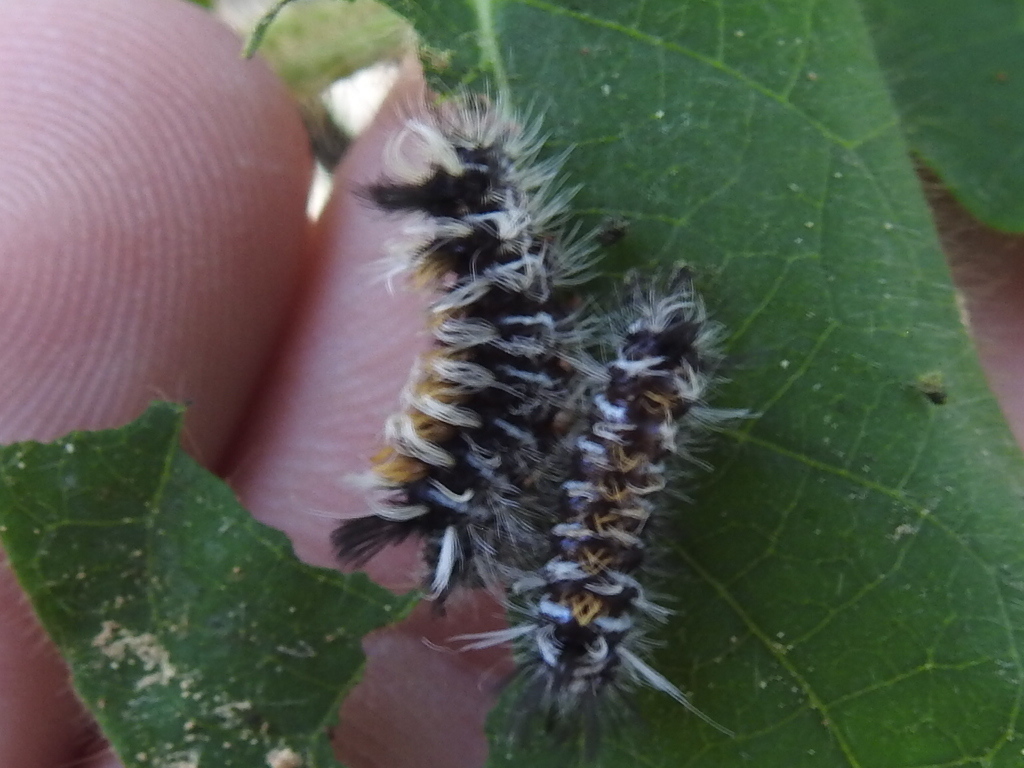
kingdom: Animalia
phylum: Arthropoda
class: Insecta
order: Lepidoptera
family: Erebidae
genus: Euchaetes
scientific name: Euchaetes egle
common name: Milkweed tussock moth
